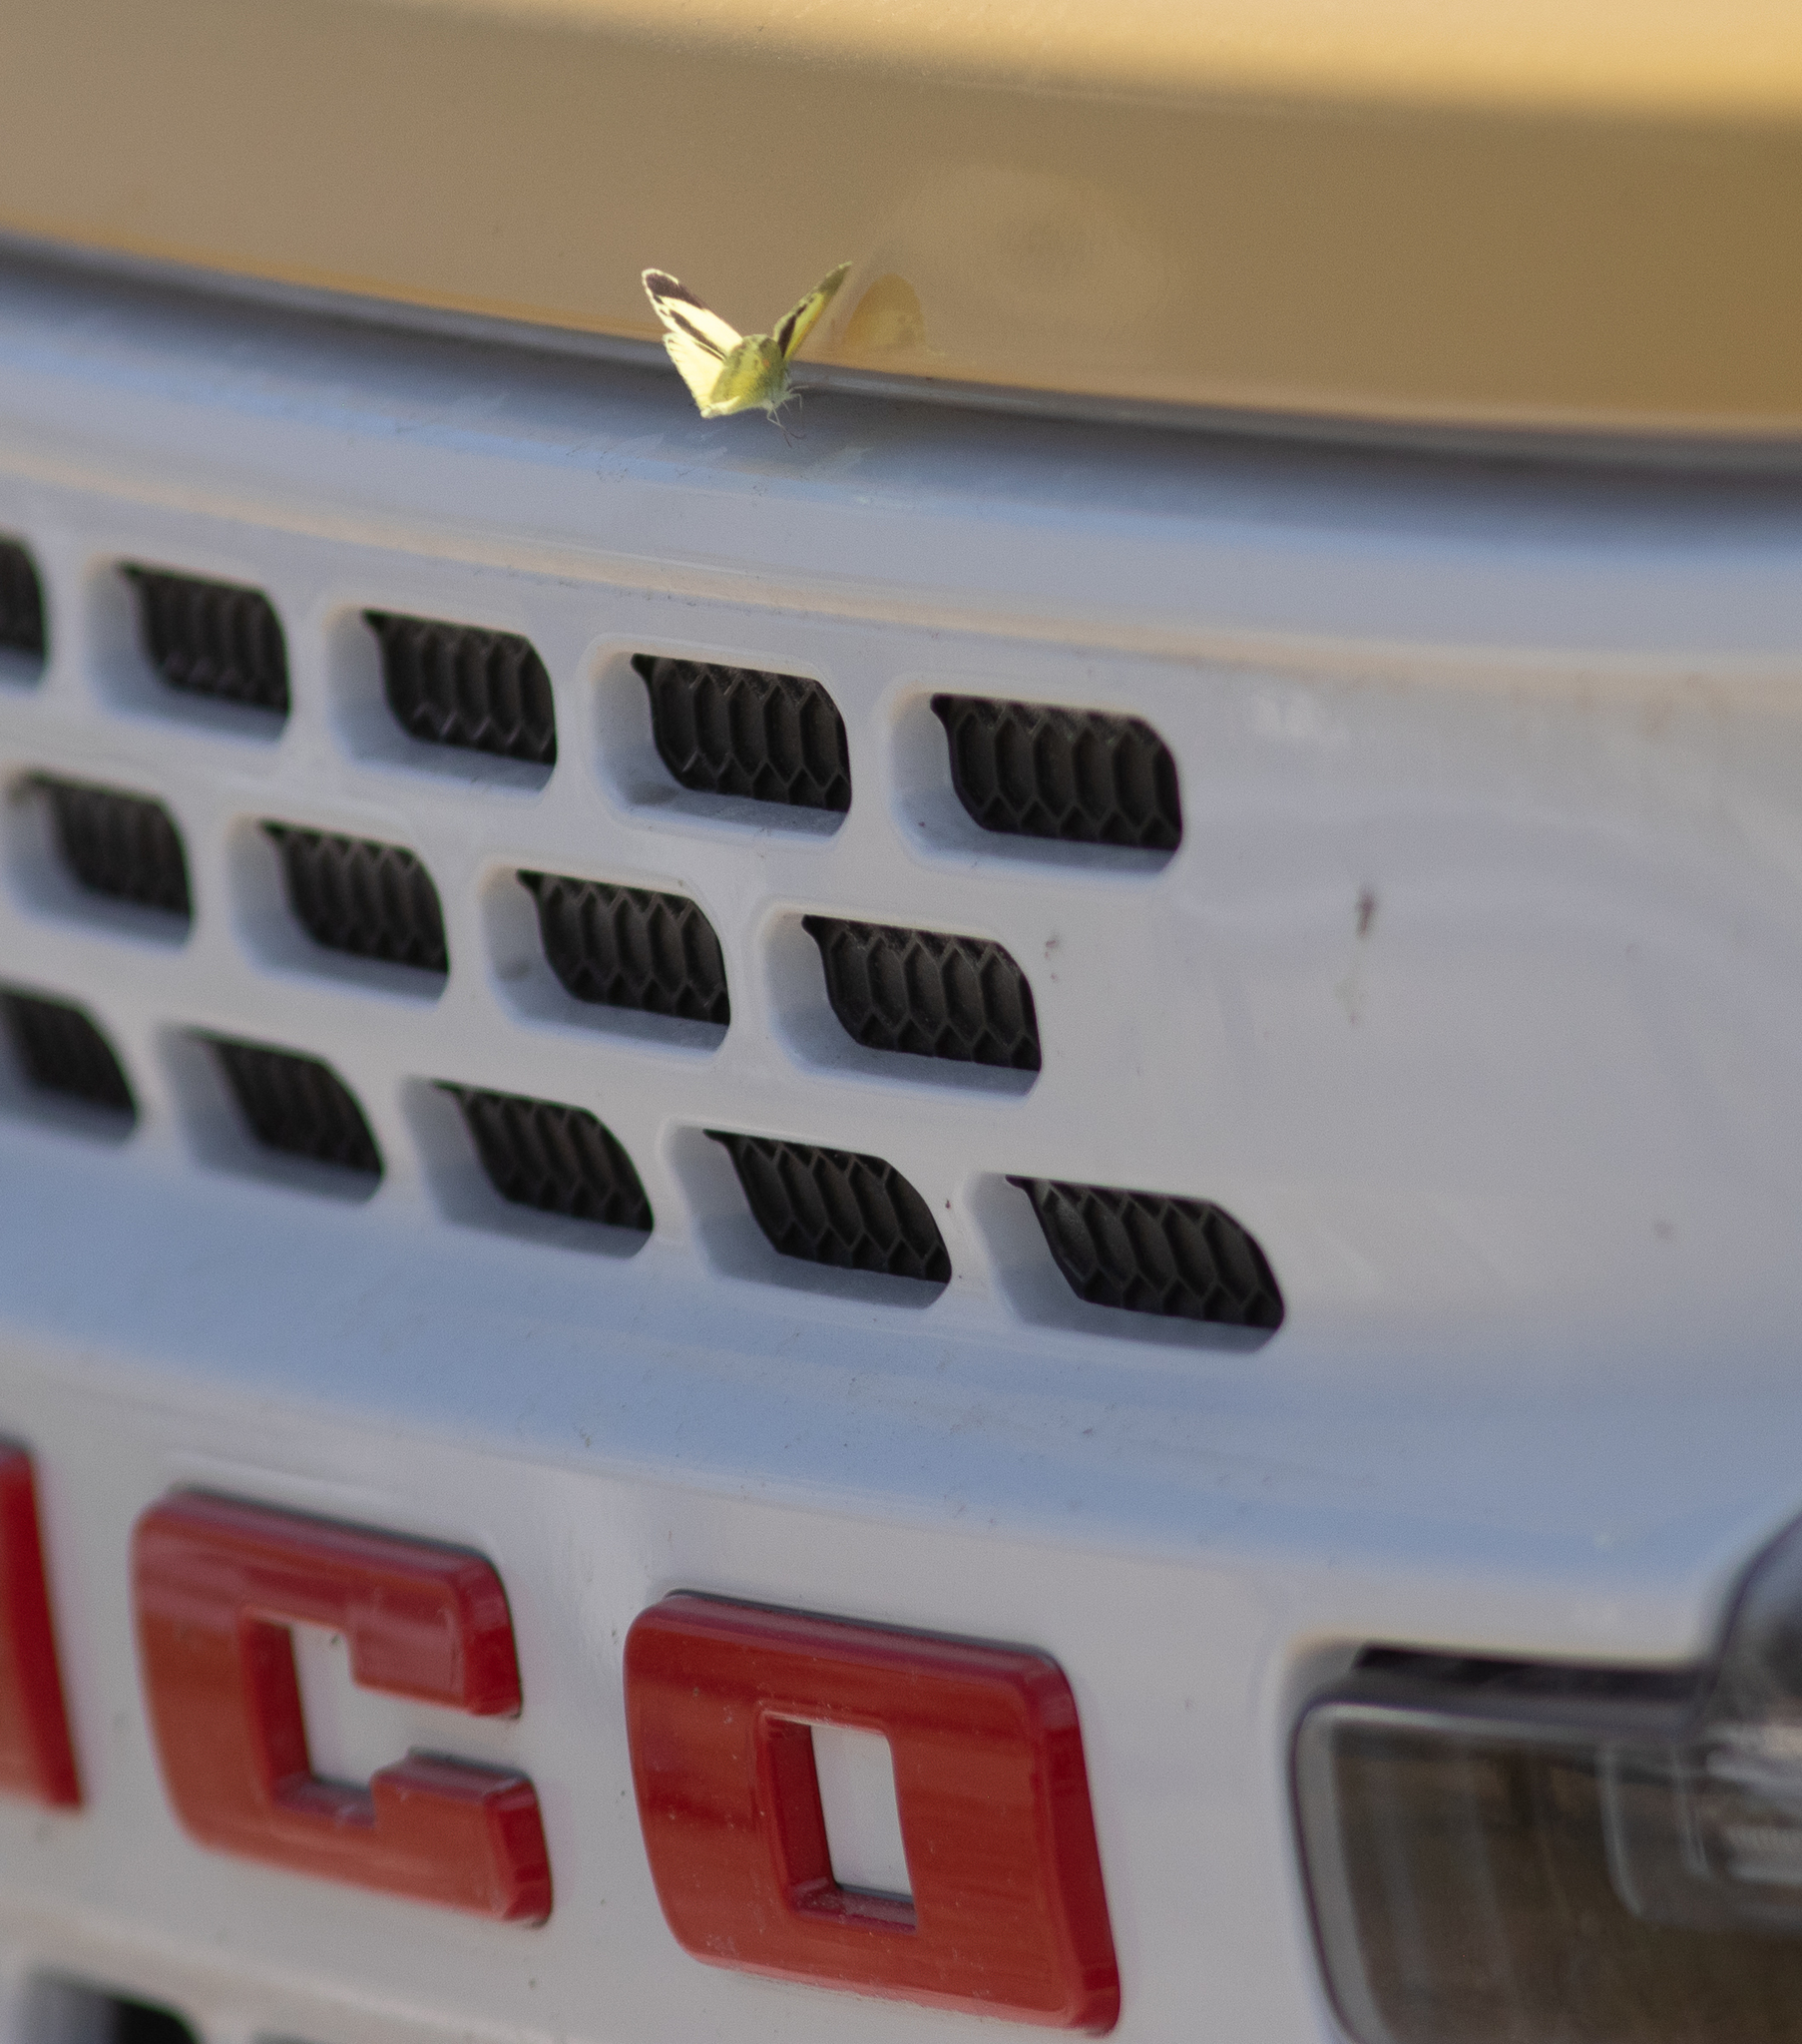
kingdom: Animalia
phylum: Arthropoda
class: Insecta
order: Lepidoptera
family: Pieridae
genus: Nathalis
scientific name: Nathalis iole
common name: Dainty sulphur
